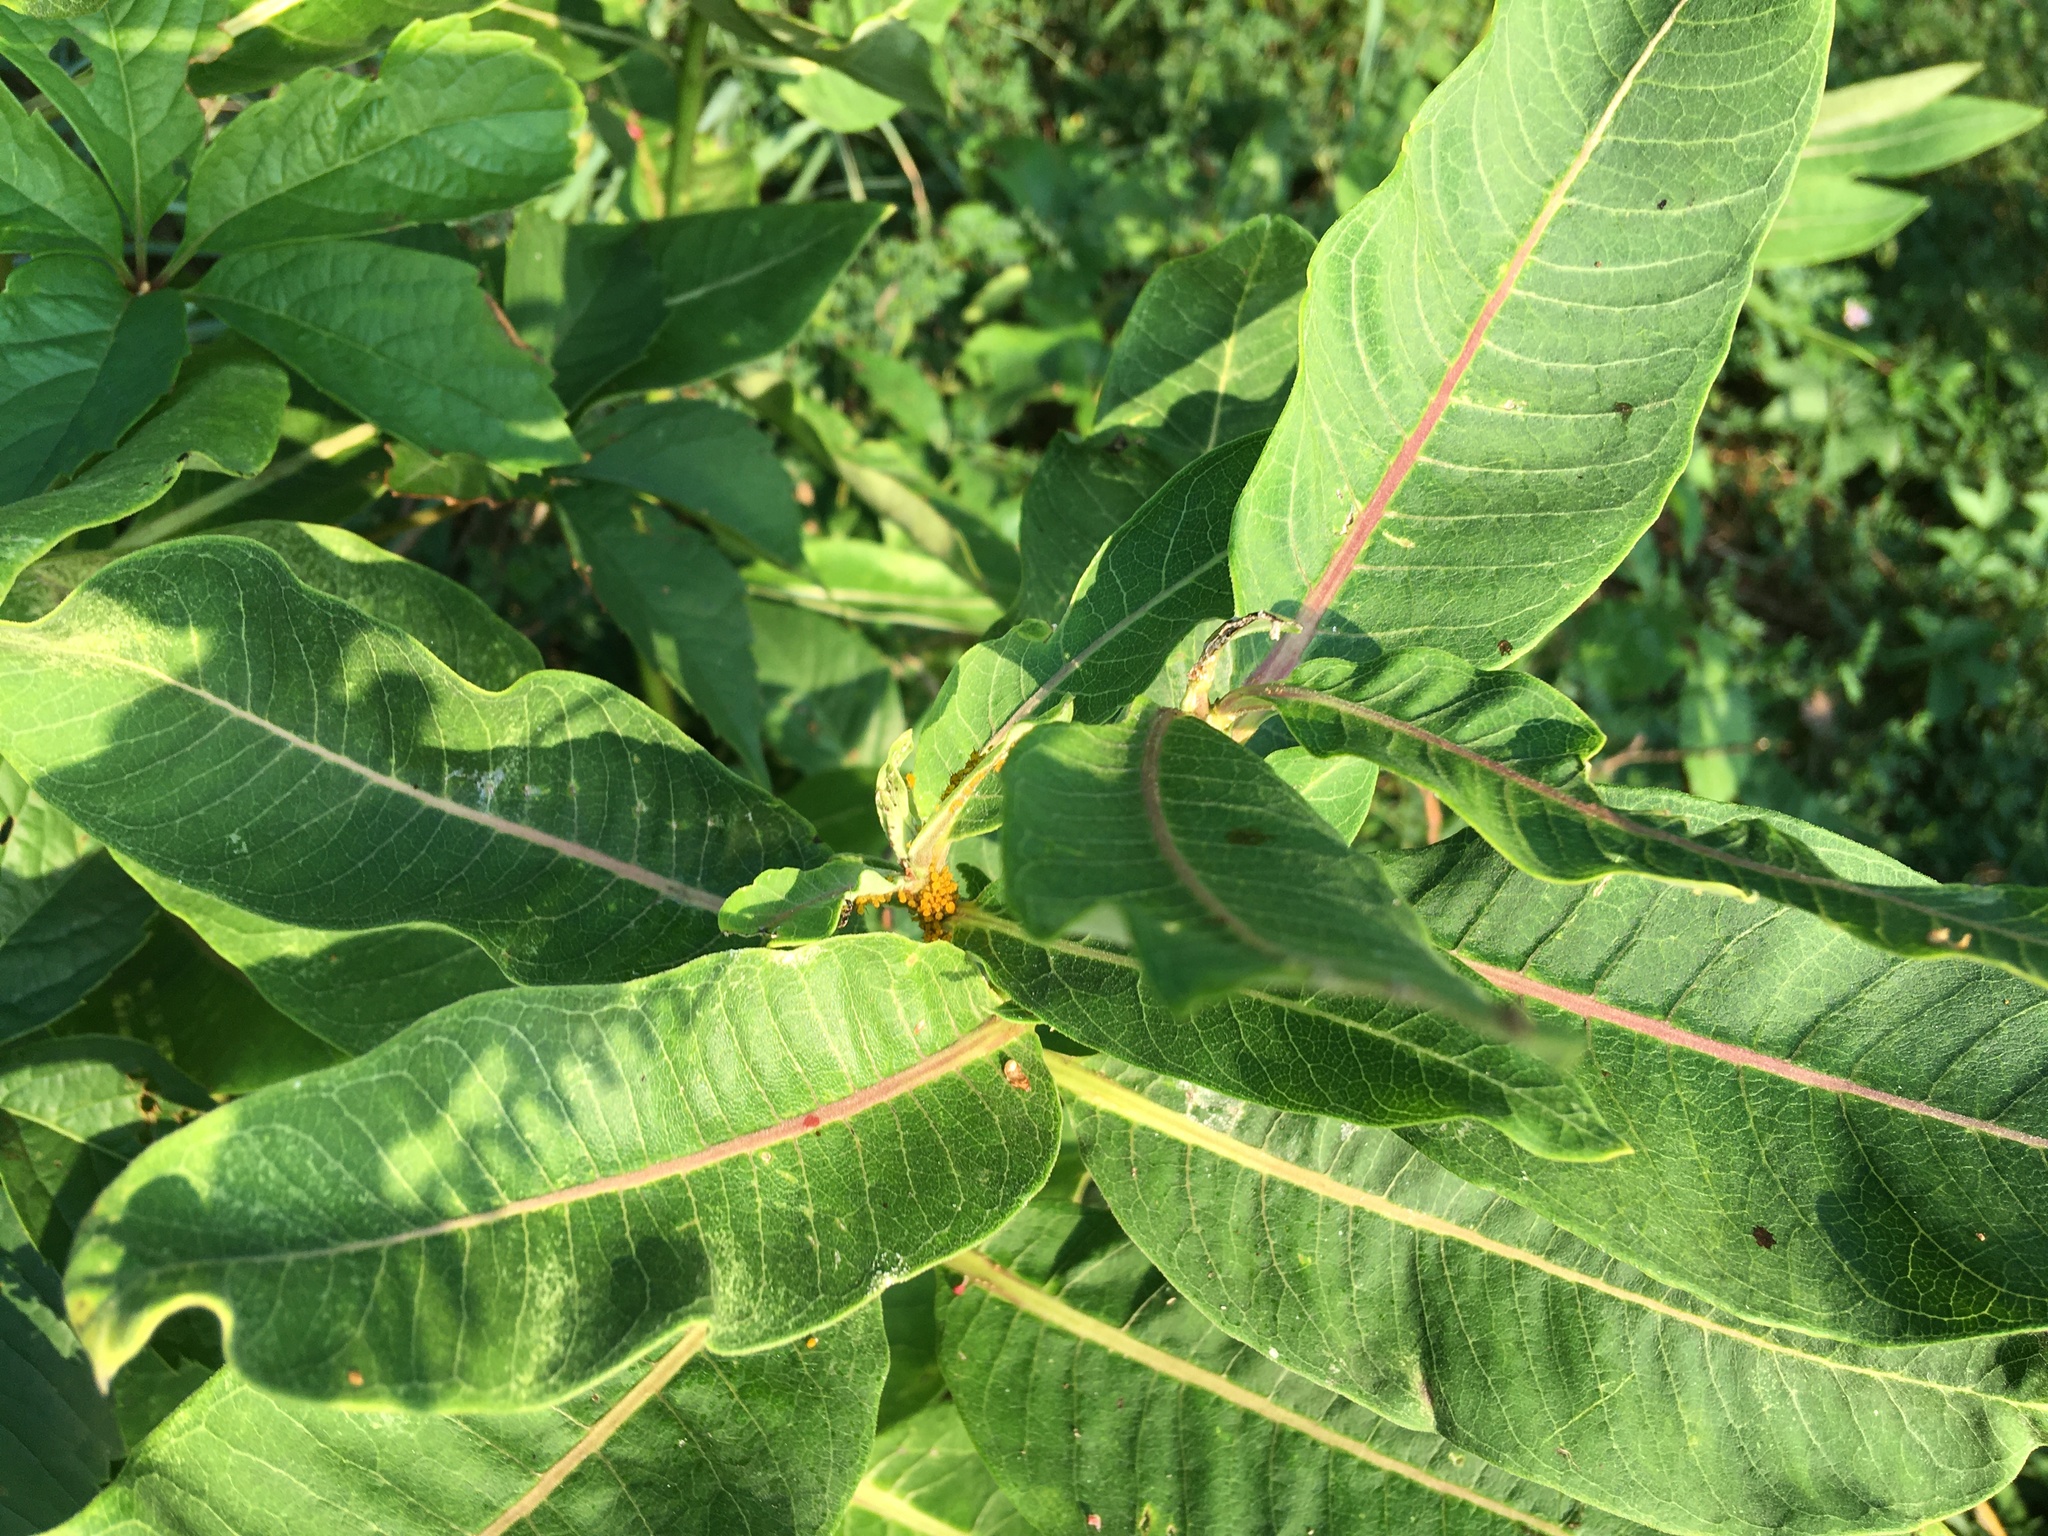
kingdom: Plantae
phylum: Tracheophyta
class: Magnoliopsida
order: Gentianales
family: Apocynaceae
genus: Asclepias
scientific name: Asclepias syriaca
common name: Common milkweed
